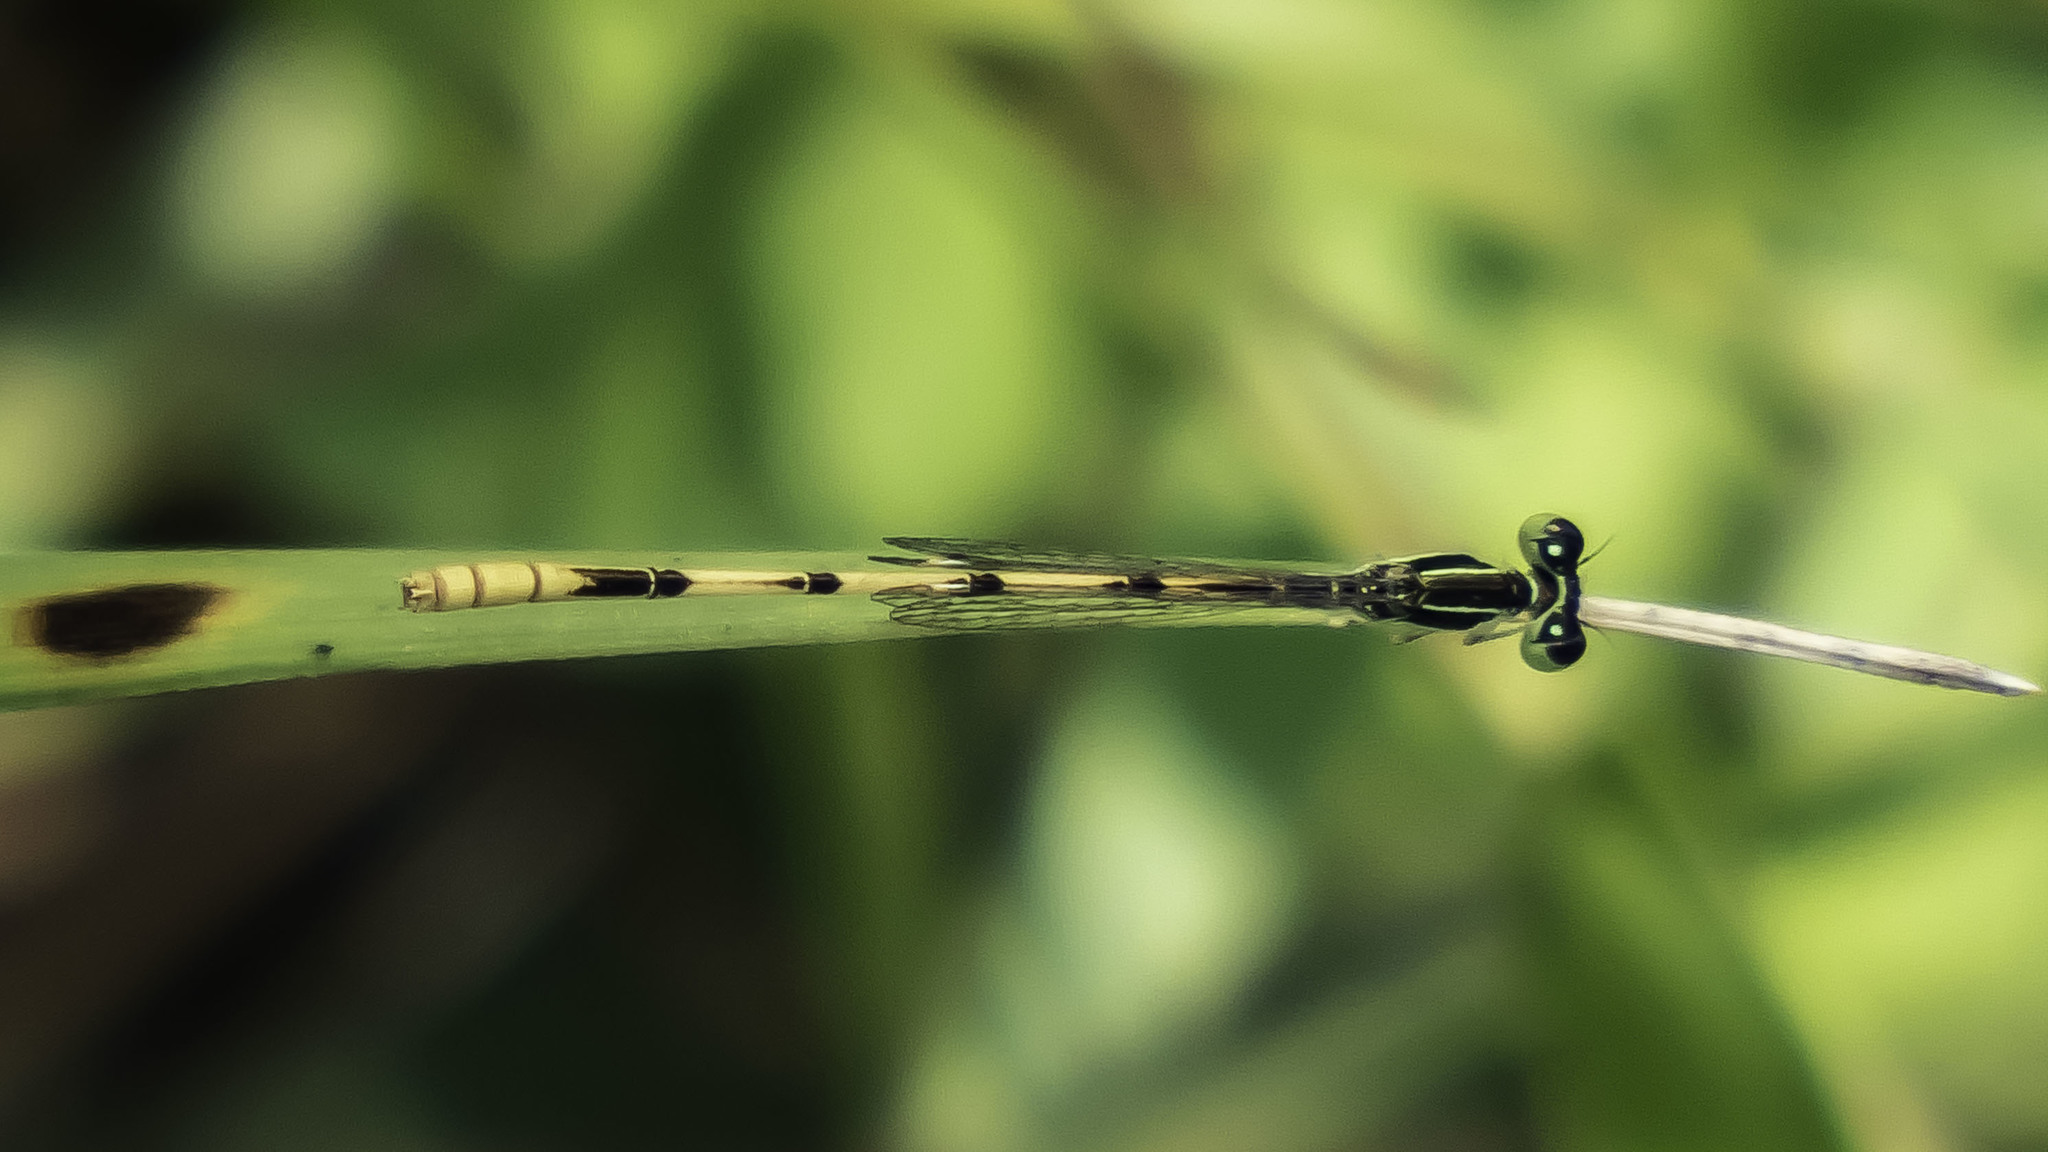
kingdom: Animalia
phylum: Arthropoda
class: Insecta
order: Odonata
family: Coenagrionidae
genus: Ischnura
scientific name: Ischnura hastata
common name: Citrine forktail
